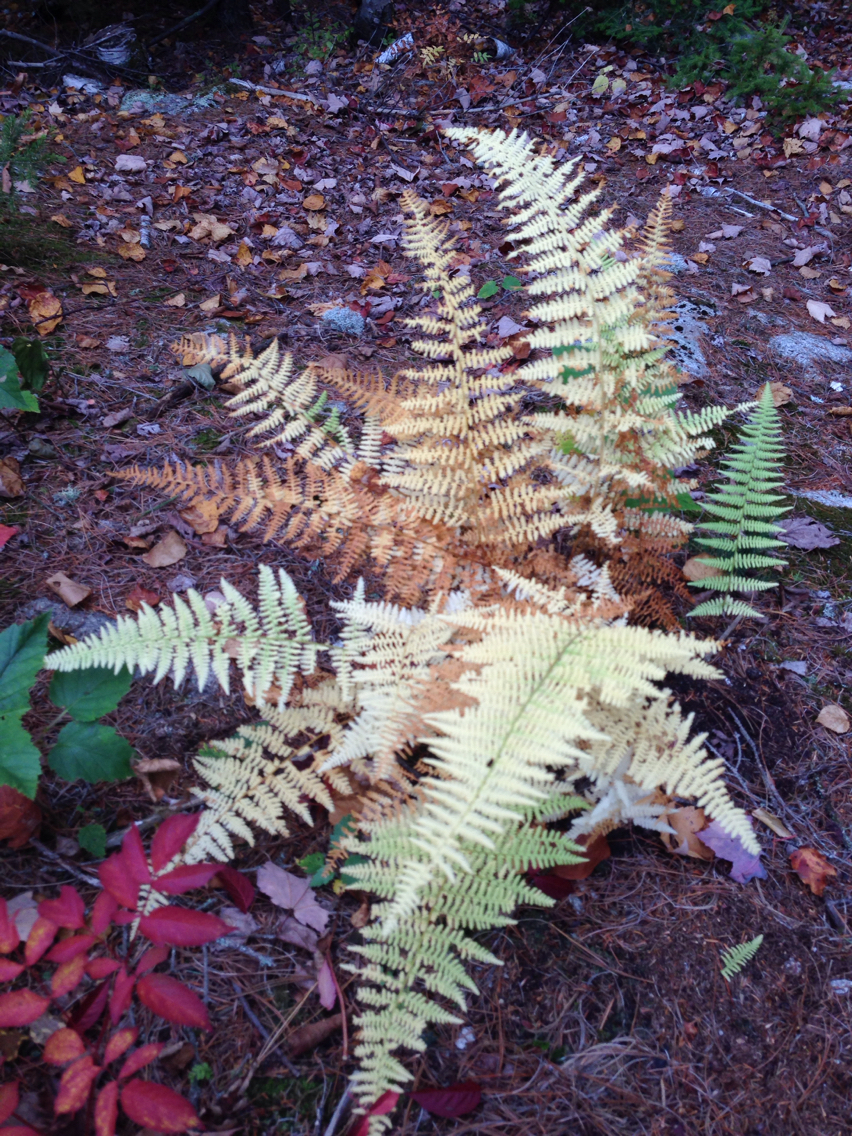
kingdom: Plantae
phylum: Tracheophyta
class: Polypodiopsida
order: Polypodiales
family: Dennstaedtiaceae
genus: Sitobolium
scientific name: Sitobolium punctilobum
